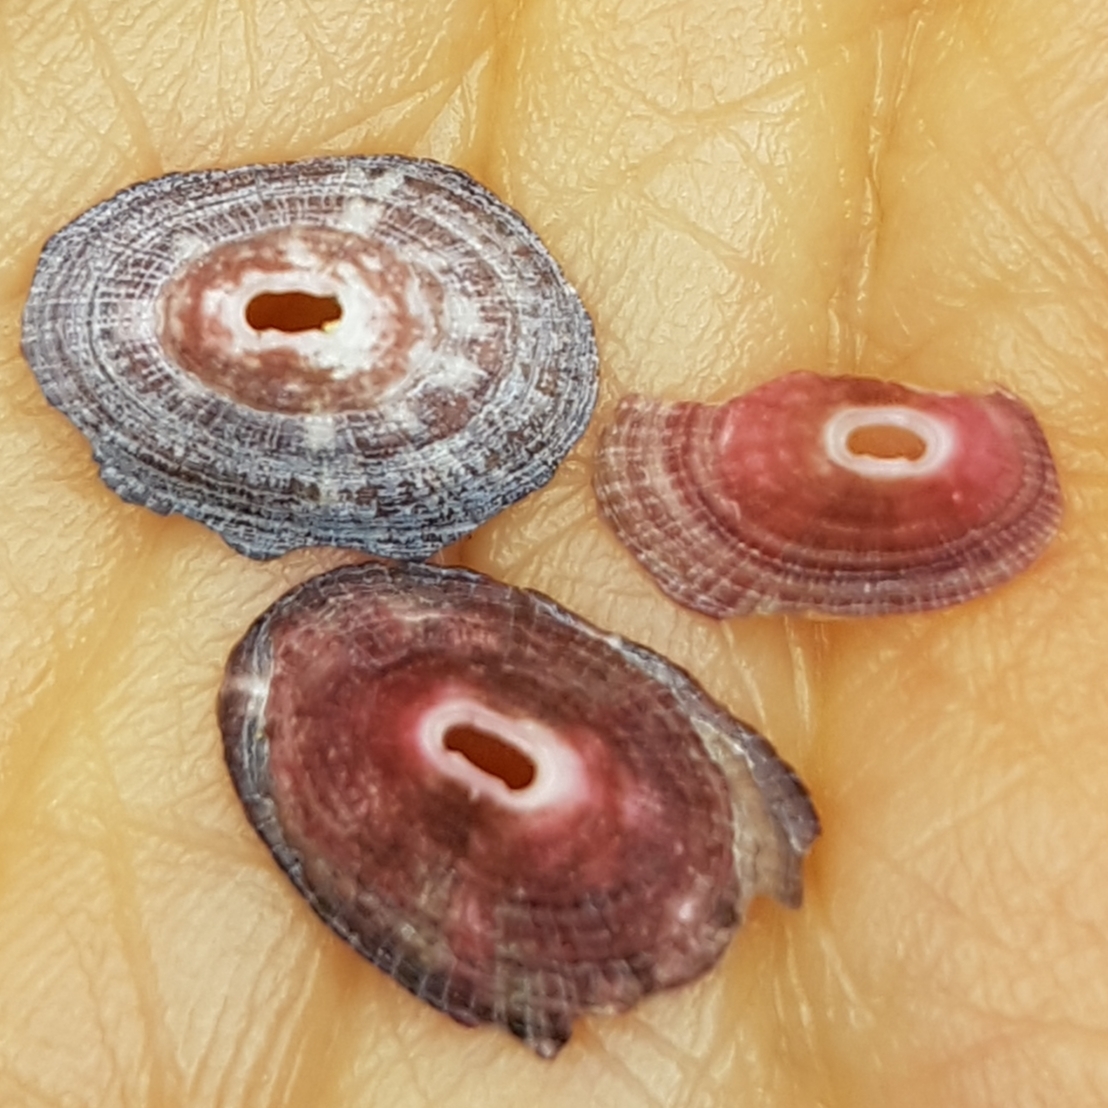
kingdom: Animalia
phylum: Mollusca
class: Gastropoda
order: Lepetellida
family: Fissurellidae
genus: Fissurella
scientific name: Fissurella nubecula
